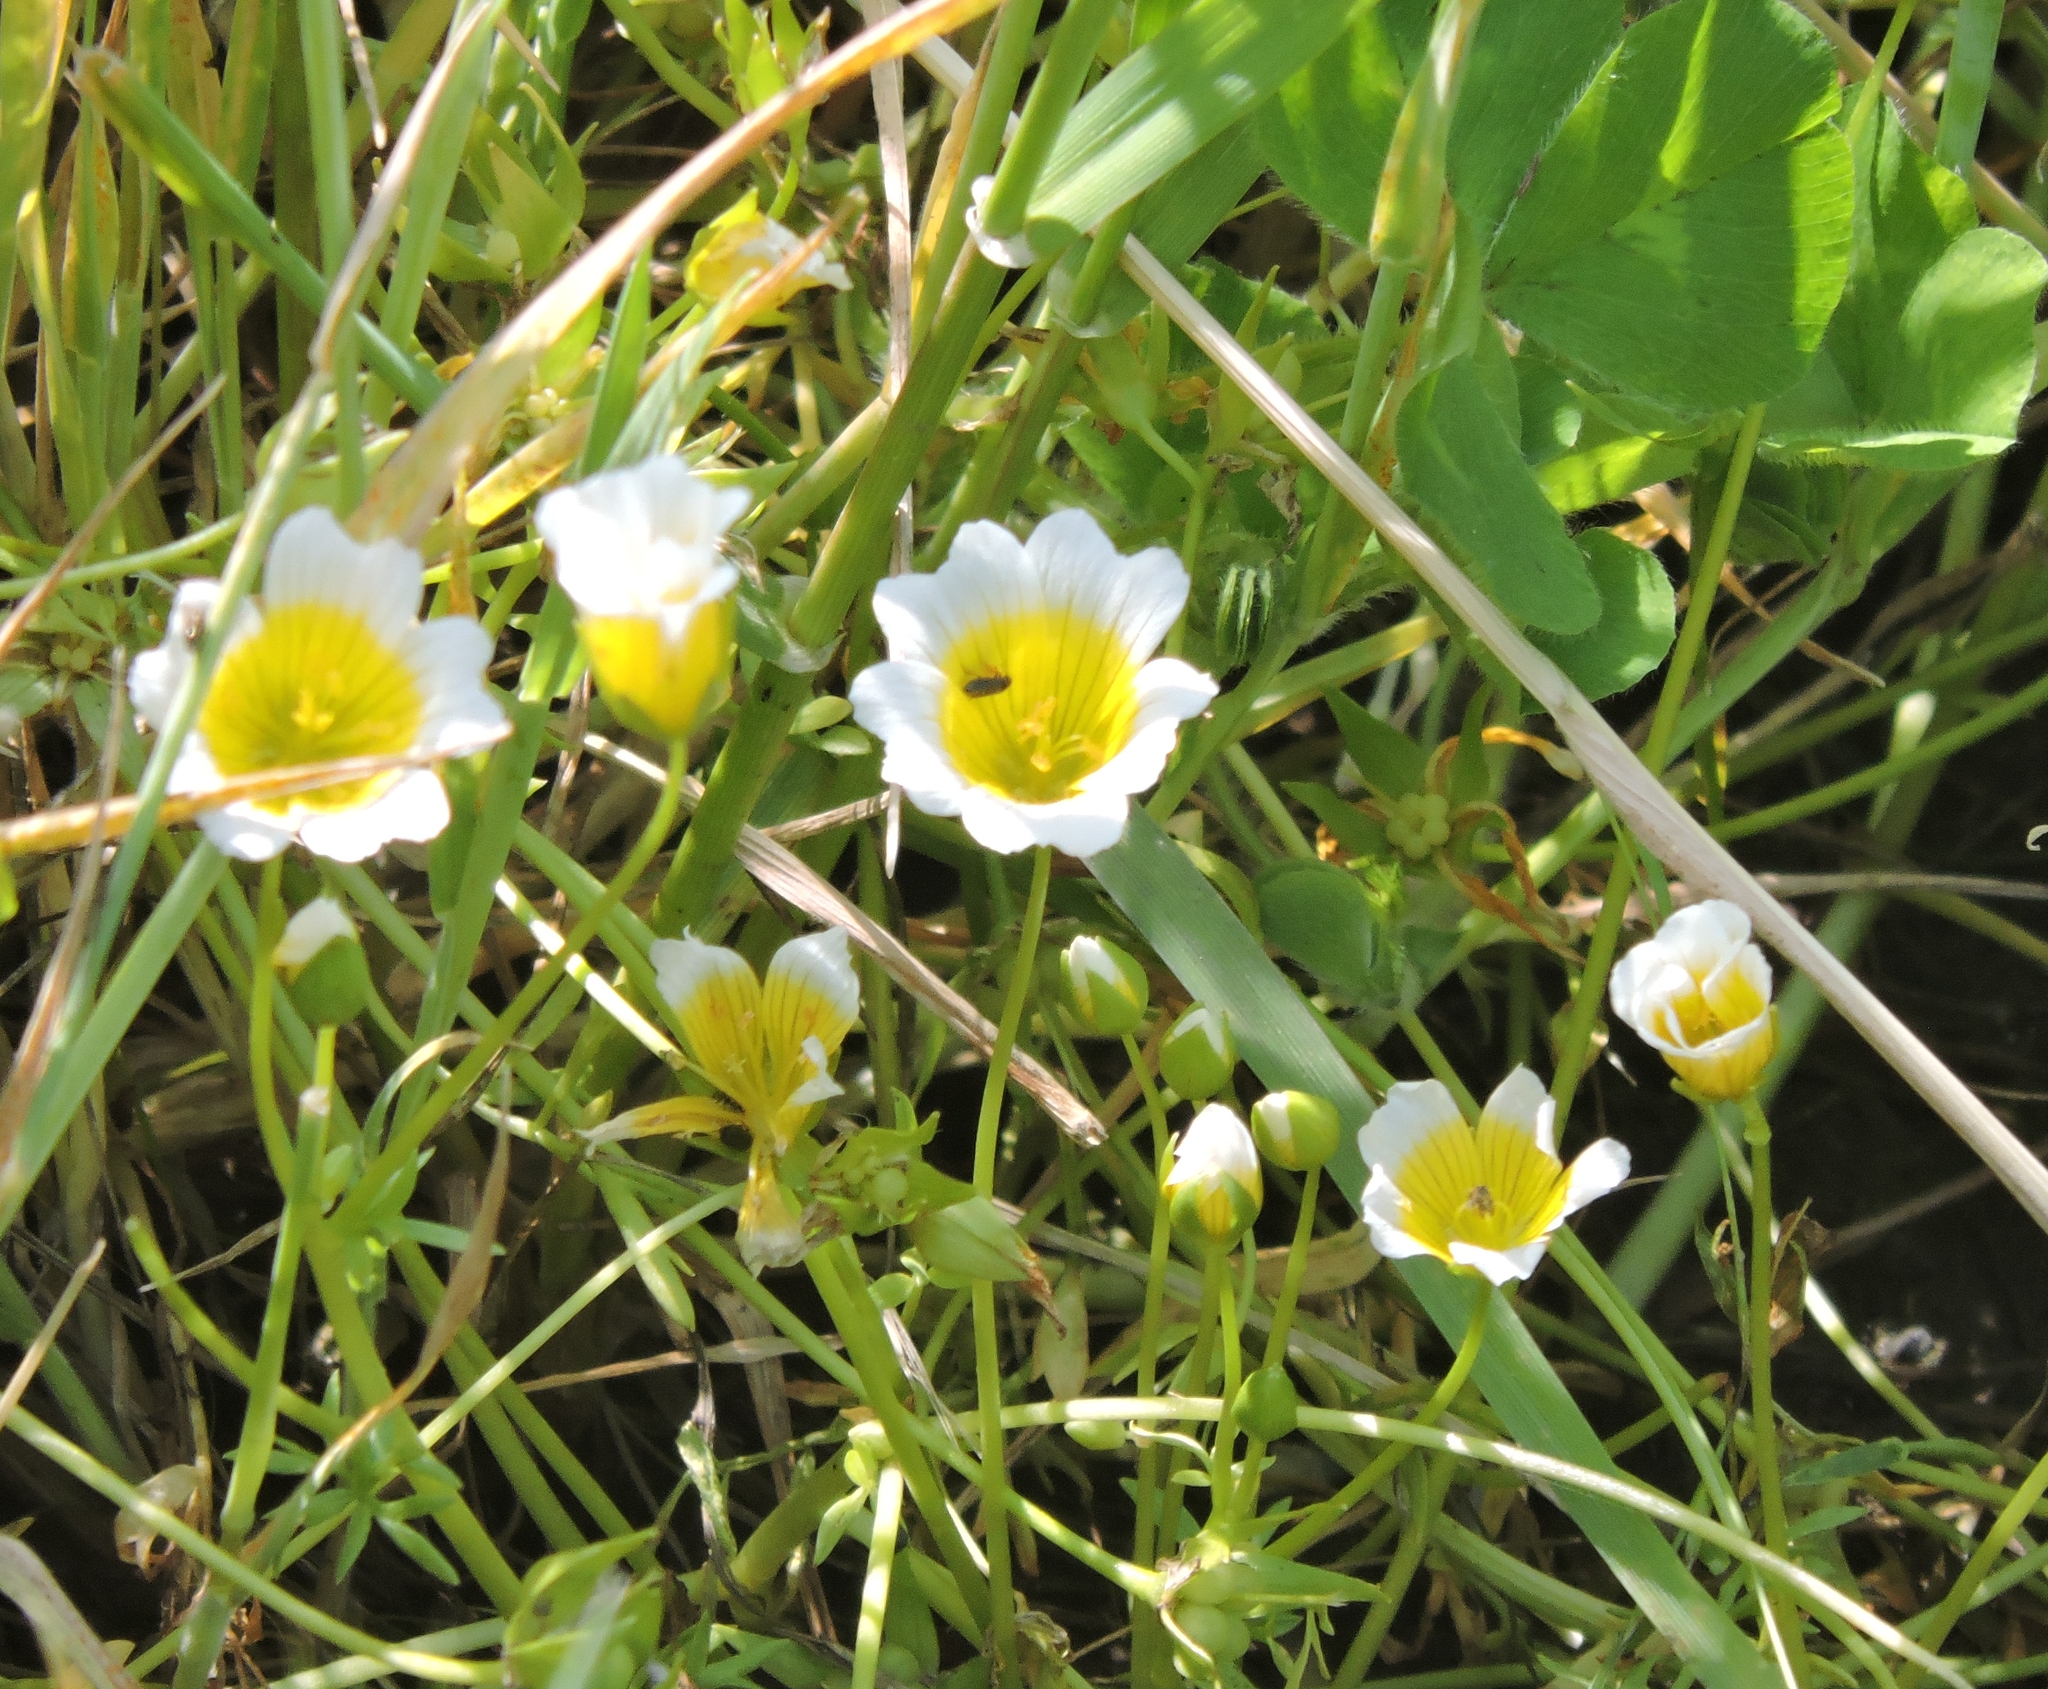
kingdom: Plantae
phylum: Tracheophyta
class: Magnoliopsida
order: Brassicales
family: Limnanthaceae
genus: Limnanthes
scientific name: Limnanthes douglasii
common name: Meadow-foam
